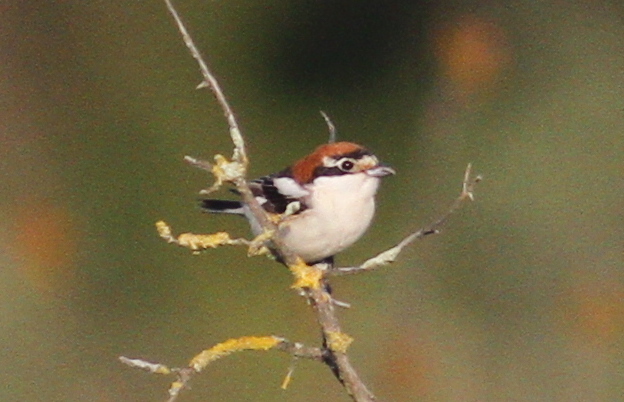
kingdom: Animalia
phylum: Chordata
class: Aves
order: Passeriformes
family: Laniidae
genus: Lanius
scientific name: Lanius senator
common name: Woodchat shrike
